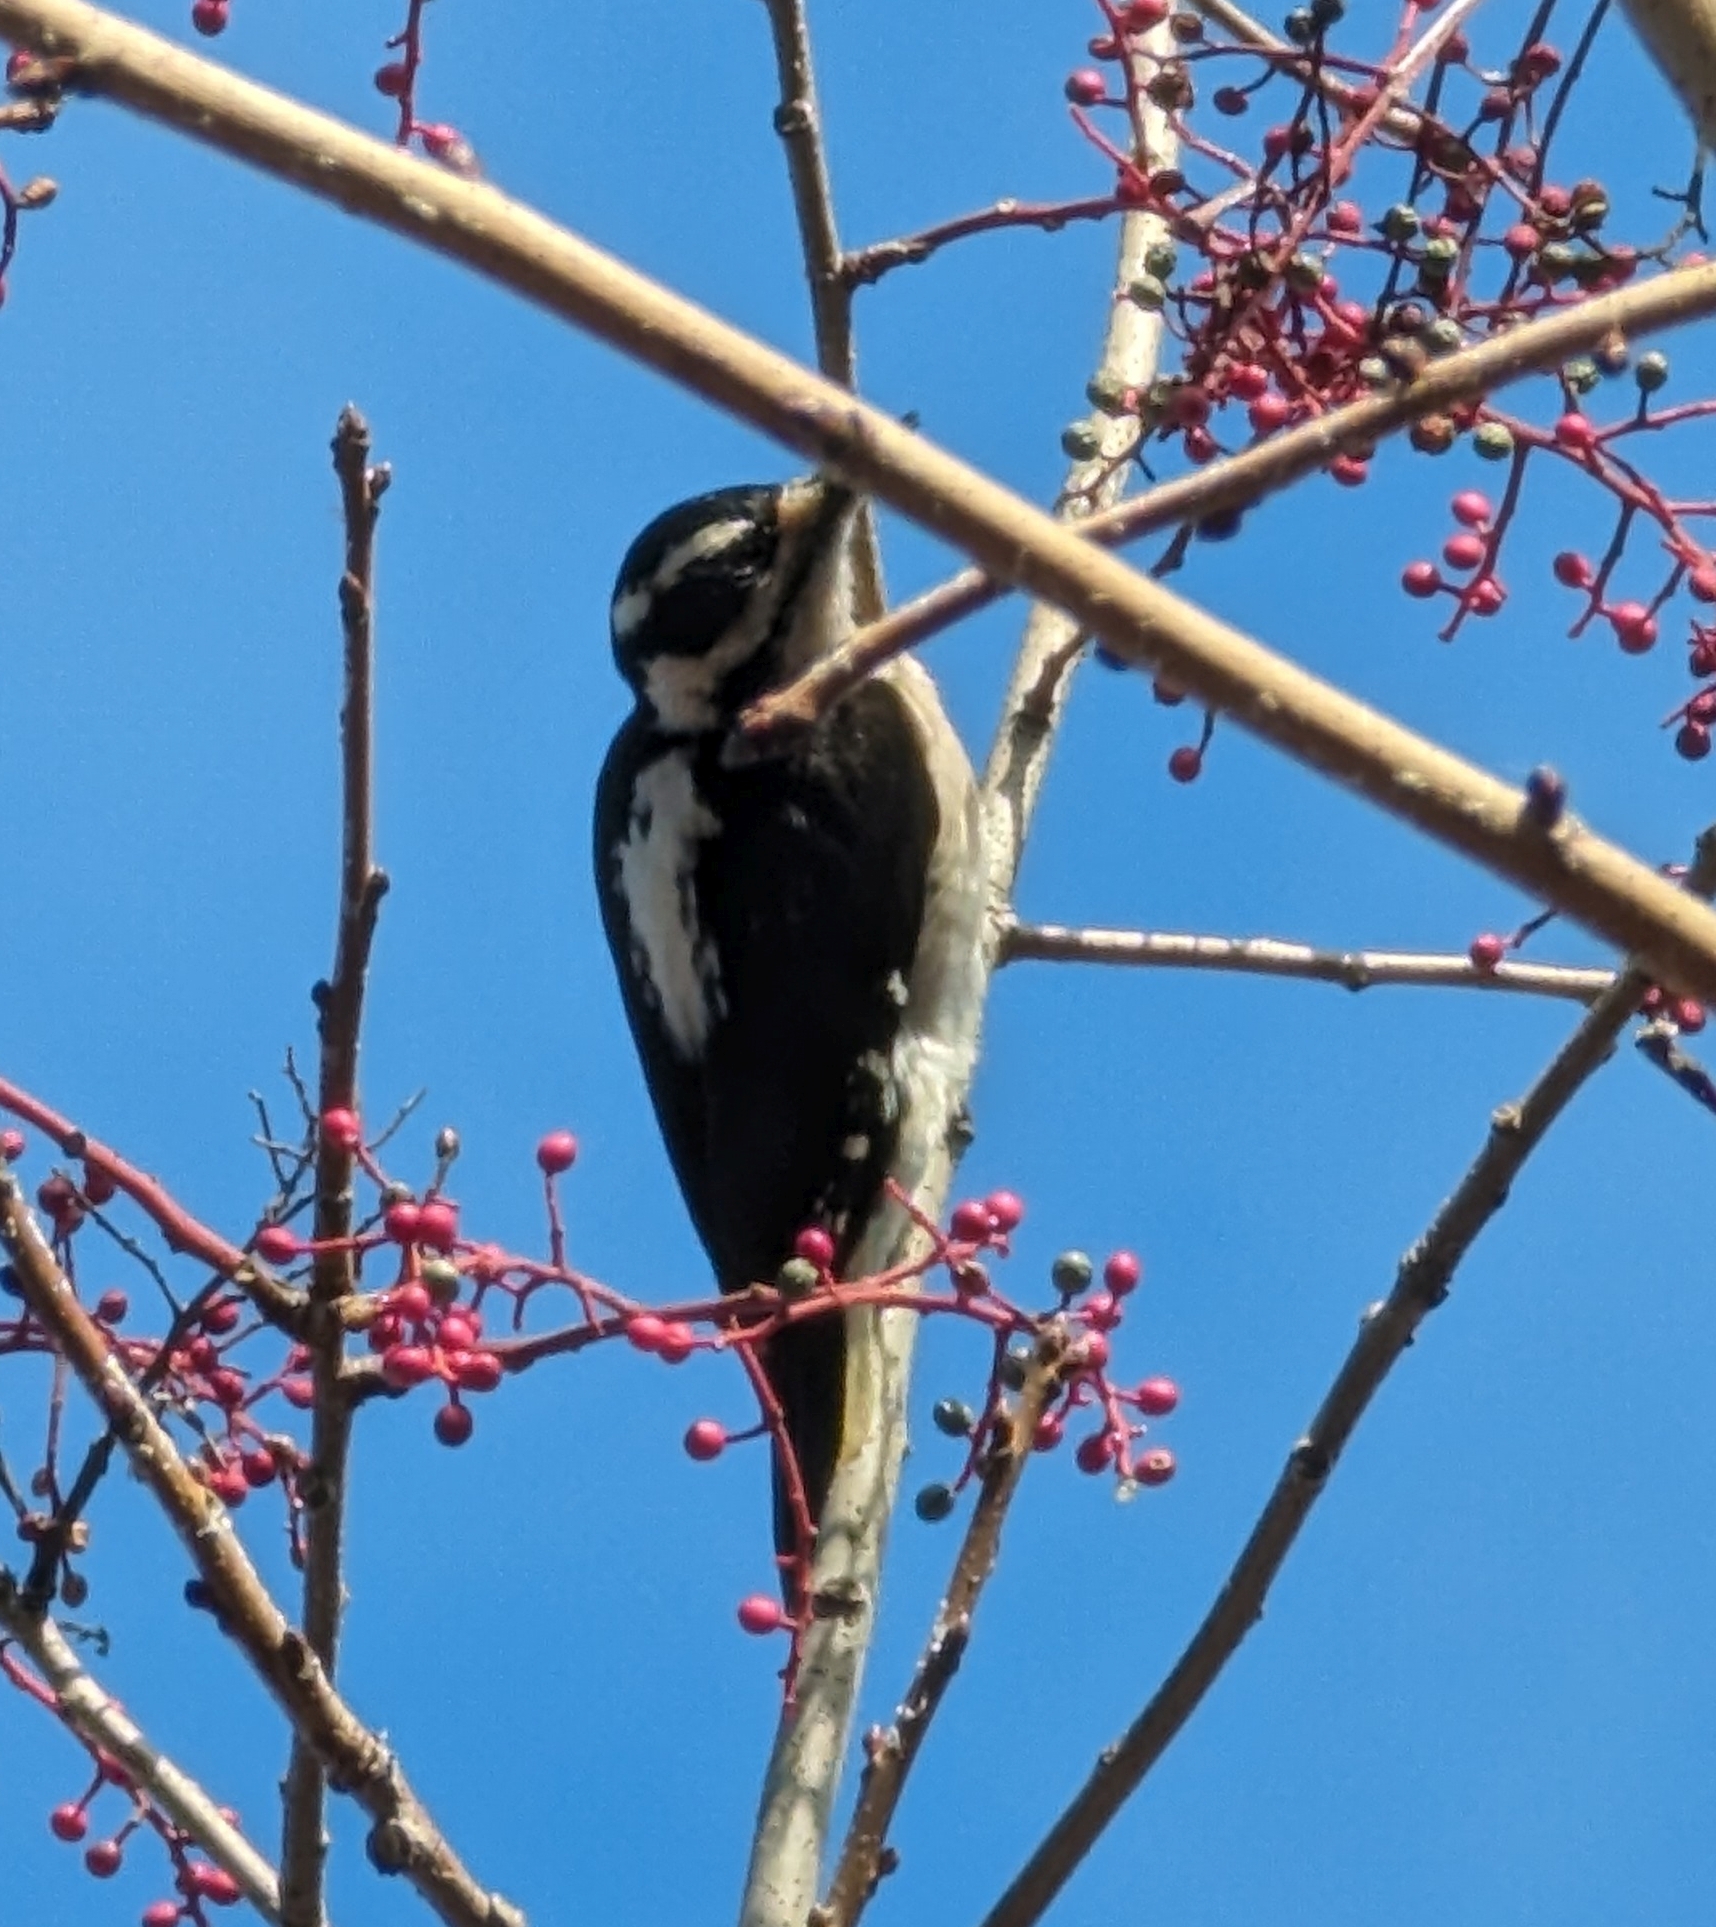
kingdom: Animalia
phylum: Chordata
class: Aves
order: Piciformes
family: Picidae
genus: Leuconotopicus
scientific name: Leuconotopicus villosus
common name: Hairy woodpecker
